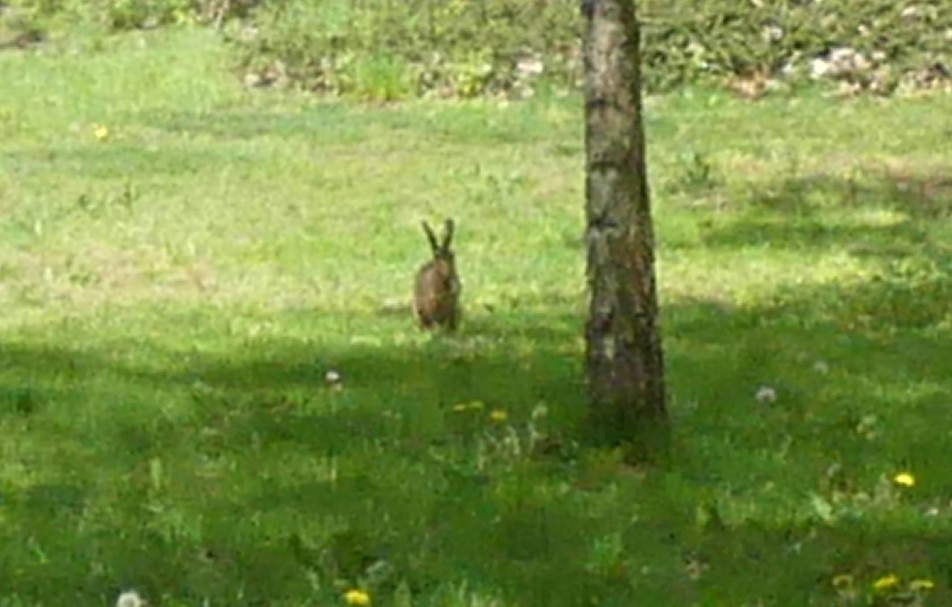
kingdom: Animalia
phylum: Chordata
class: Mammalia
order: Lagomorpha
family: Leporidae
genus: Lepus
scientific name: Lepus europaeus
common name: European hare
